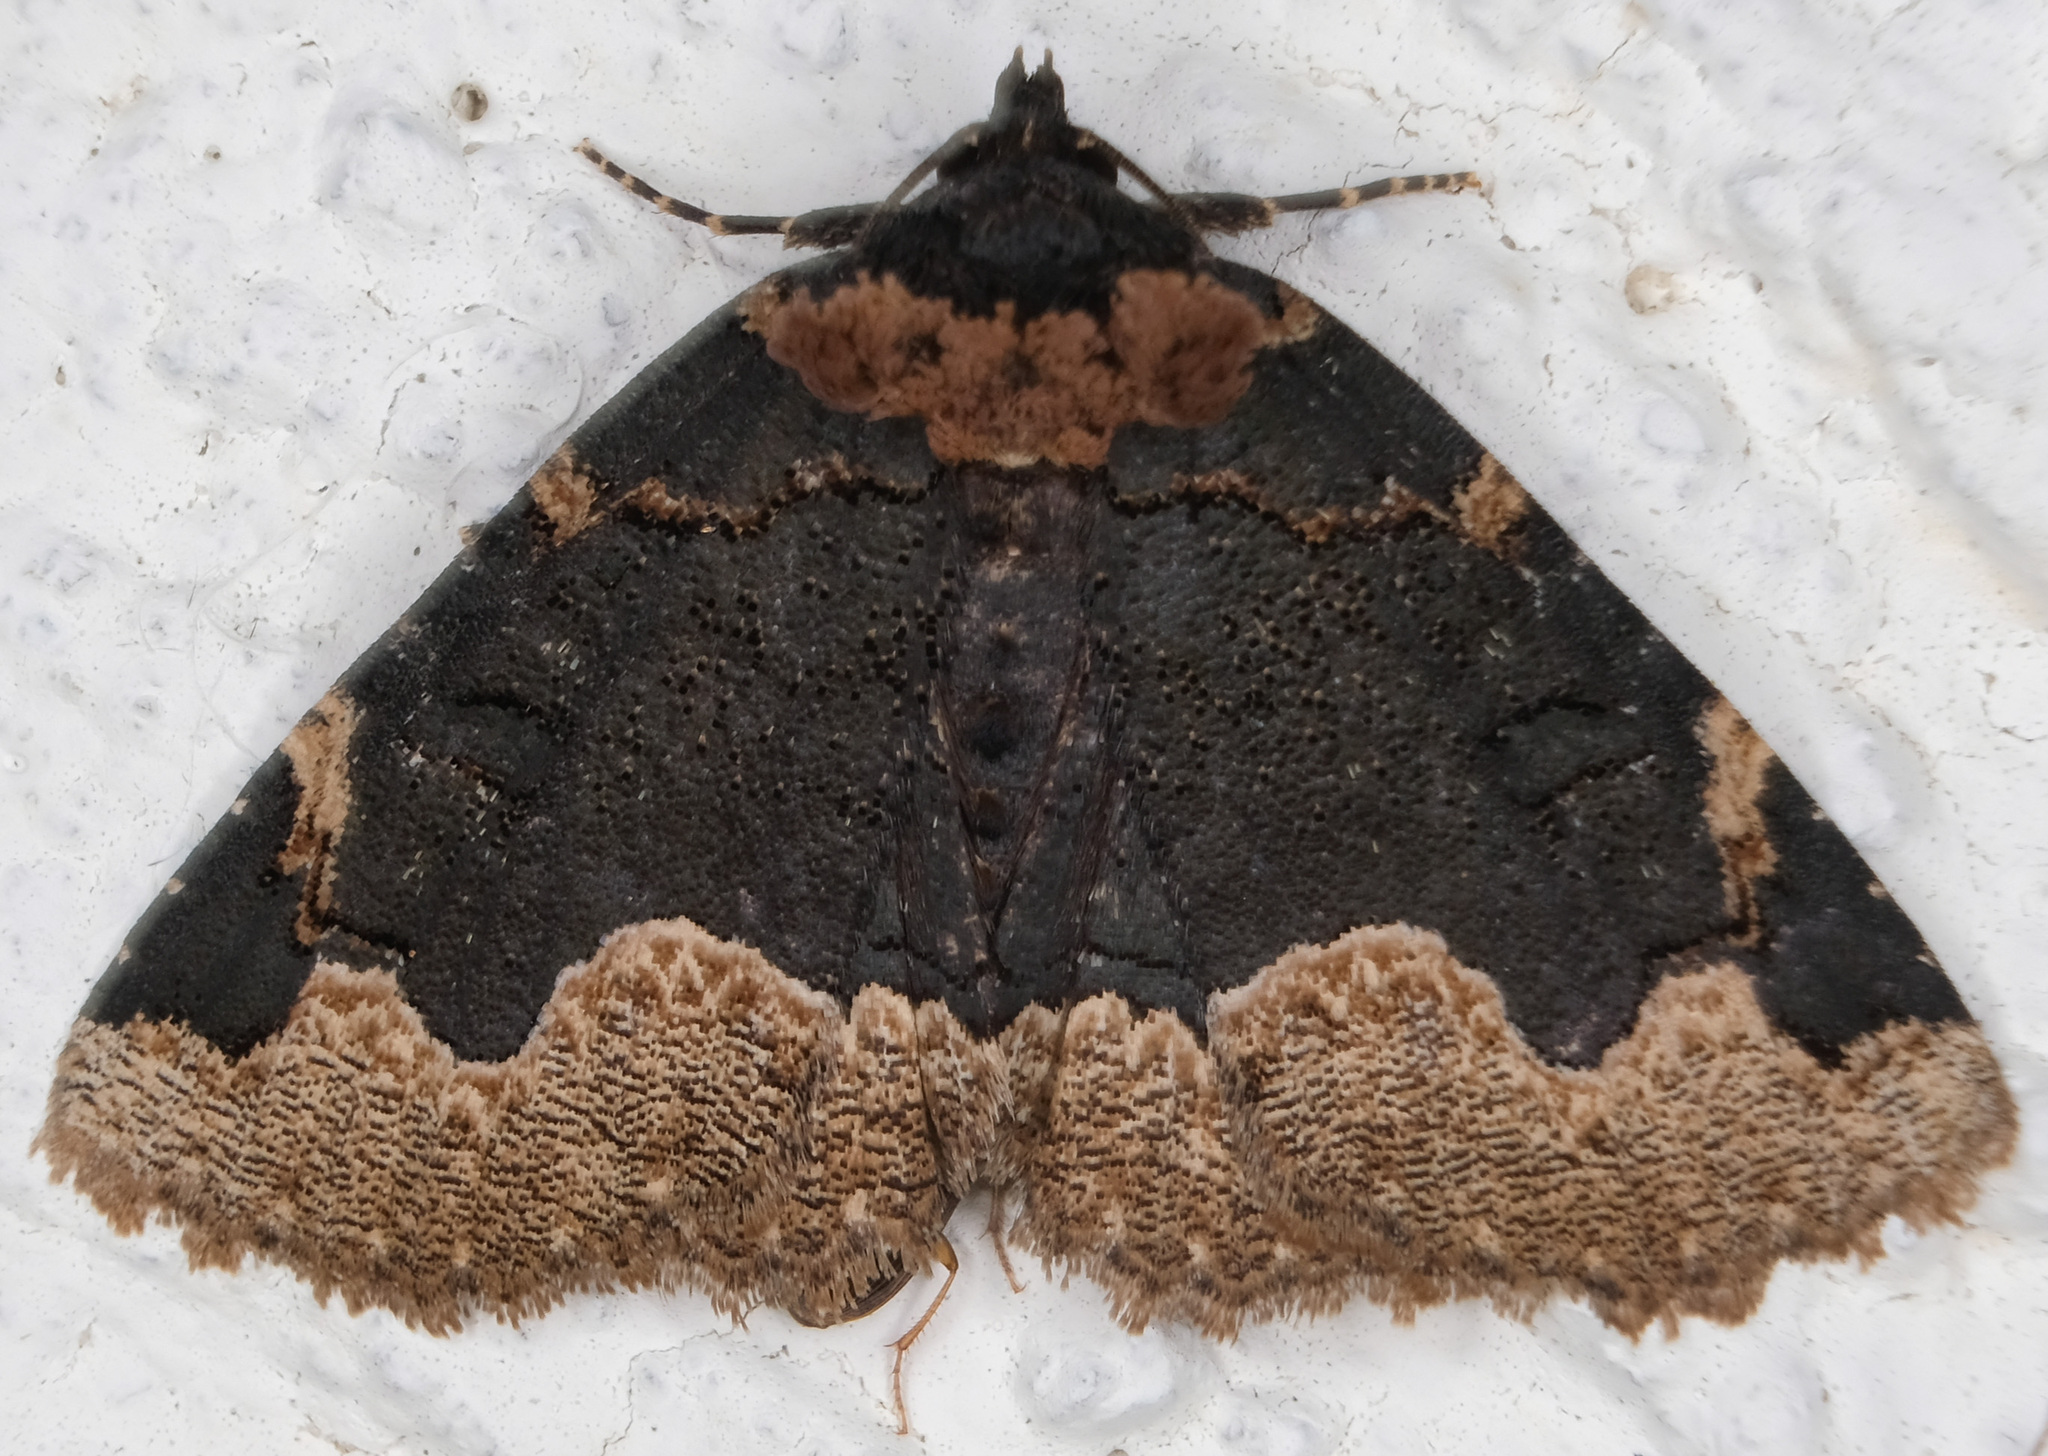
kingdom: Animalia
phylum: Arthropoda
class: Insecta
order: Lepidoptera
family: Erebidae
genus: Zale
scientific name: Zale horrida
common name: Horrid zale moth
